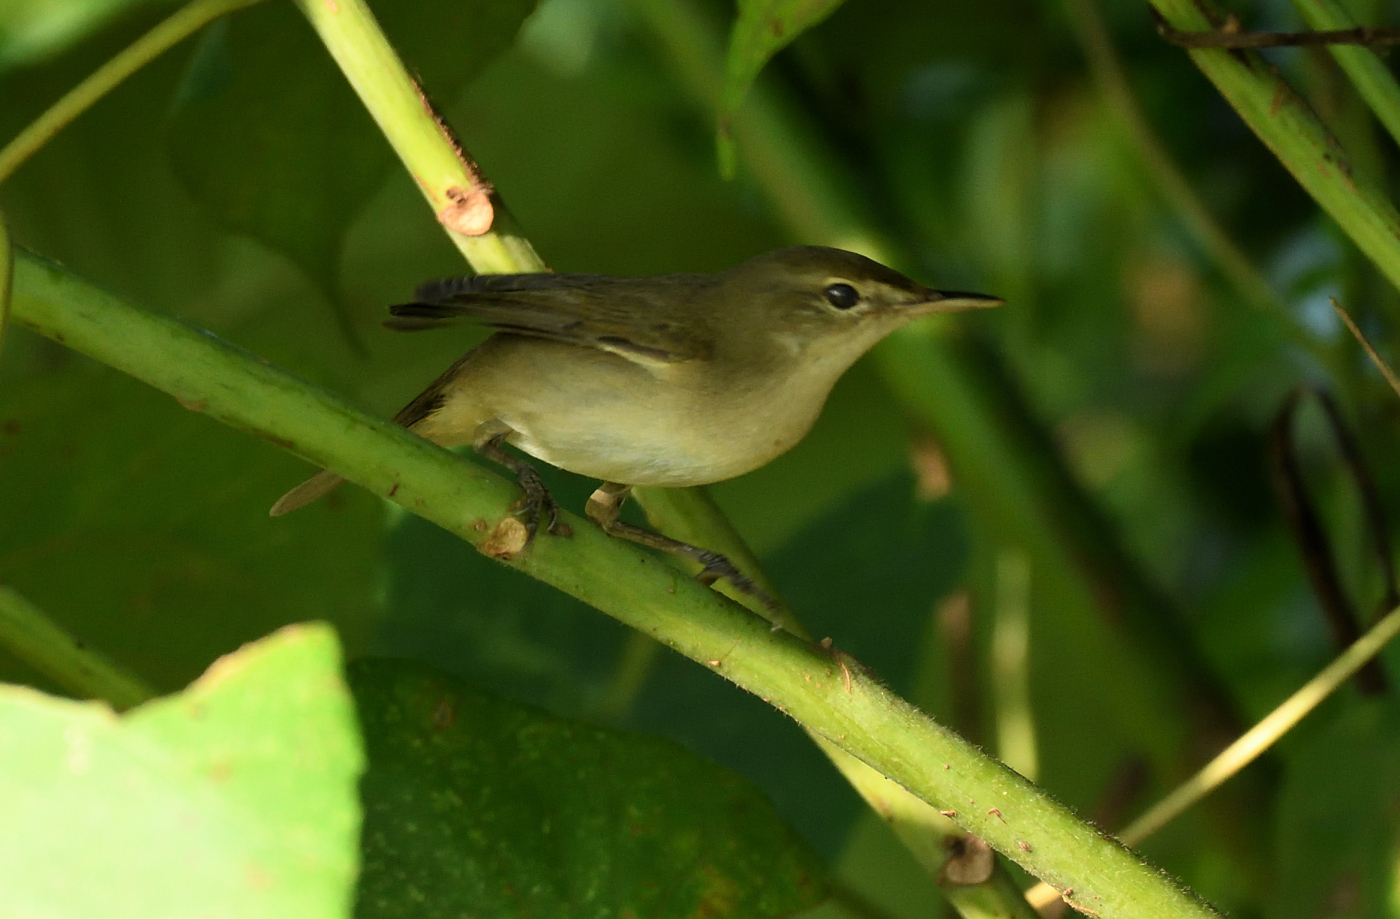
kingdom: Animalia
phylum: Chordata
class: Aves
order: Passeriformes
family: Acrocephalidae
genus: Acrocephalus
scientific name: Acrocephalus dumetorum
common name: Blyth's reed warbler
